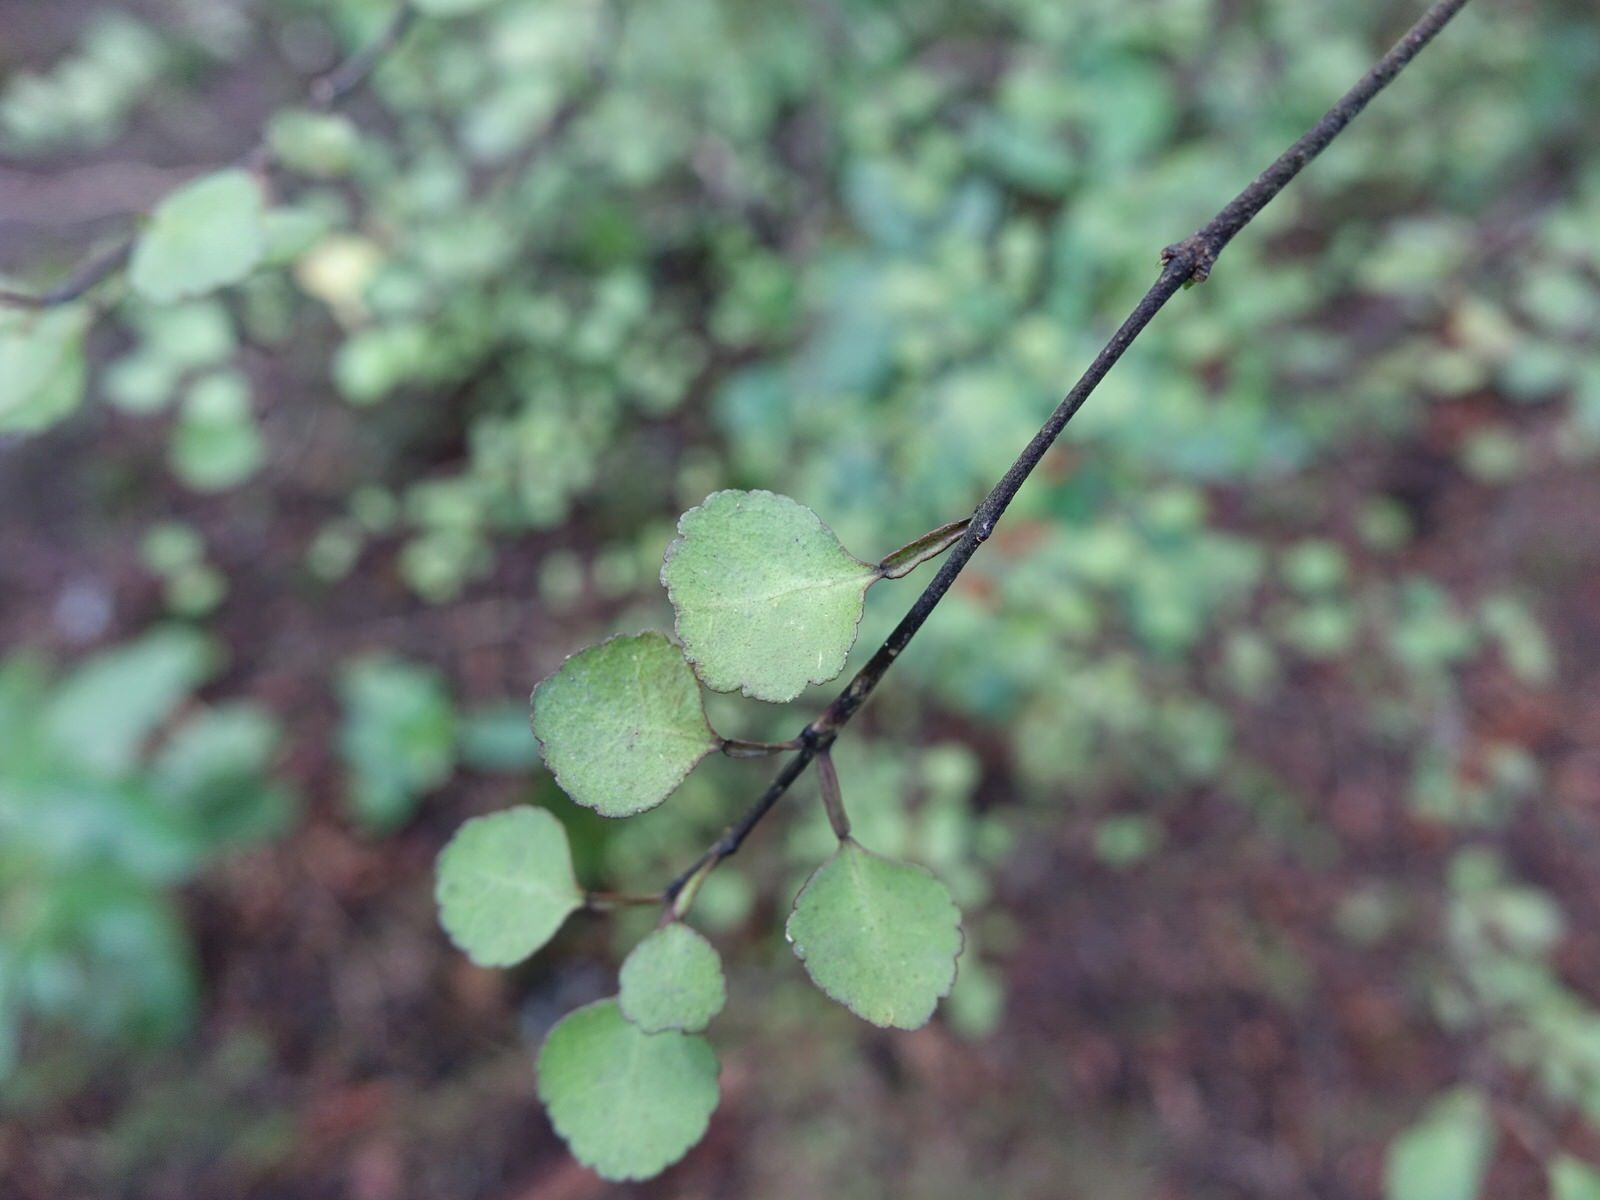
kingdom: Plantae
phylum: Tracheophyta
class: Magnoliopsida
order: Sapindales
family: Rutaceae
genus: Melicope
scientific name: Melicope simplex
